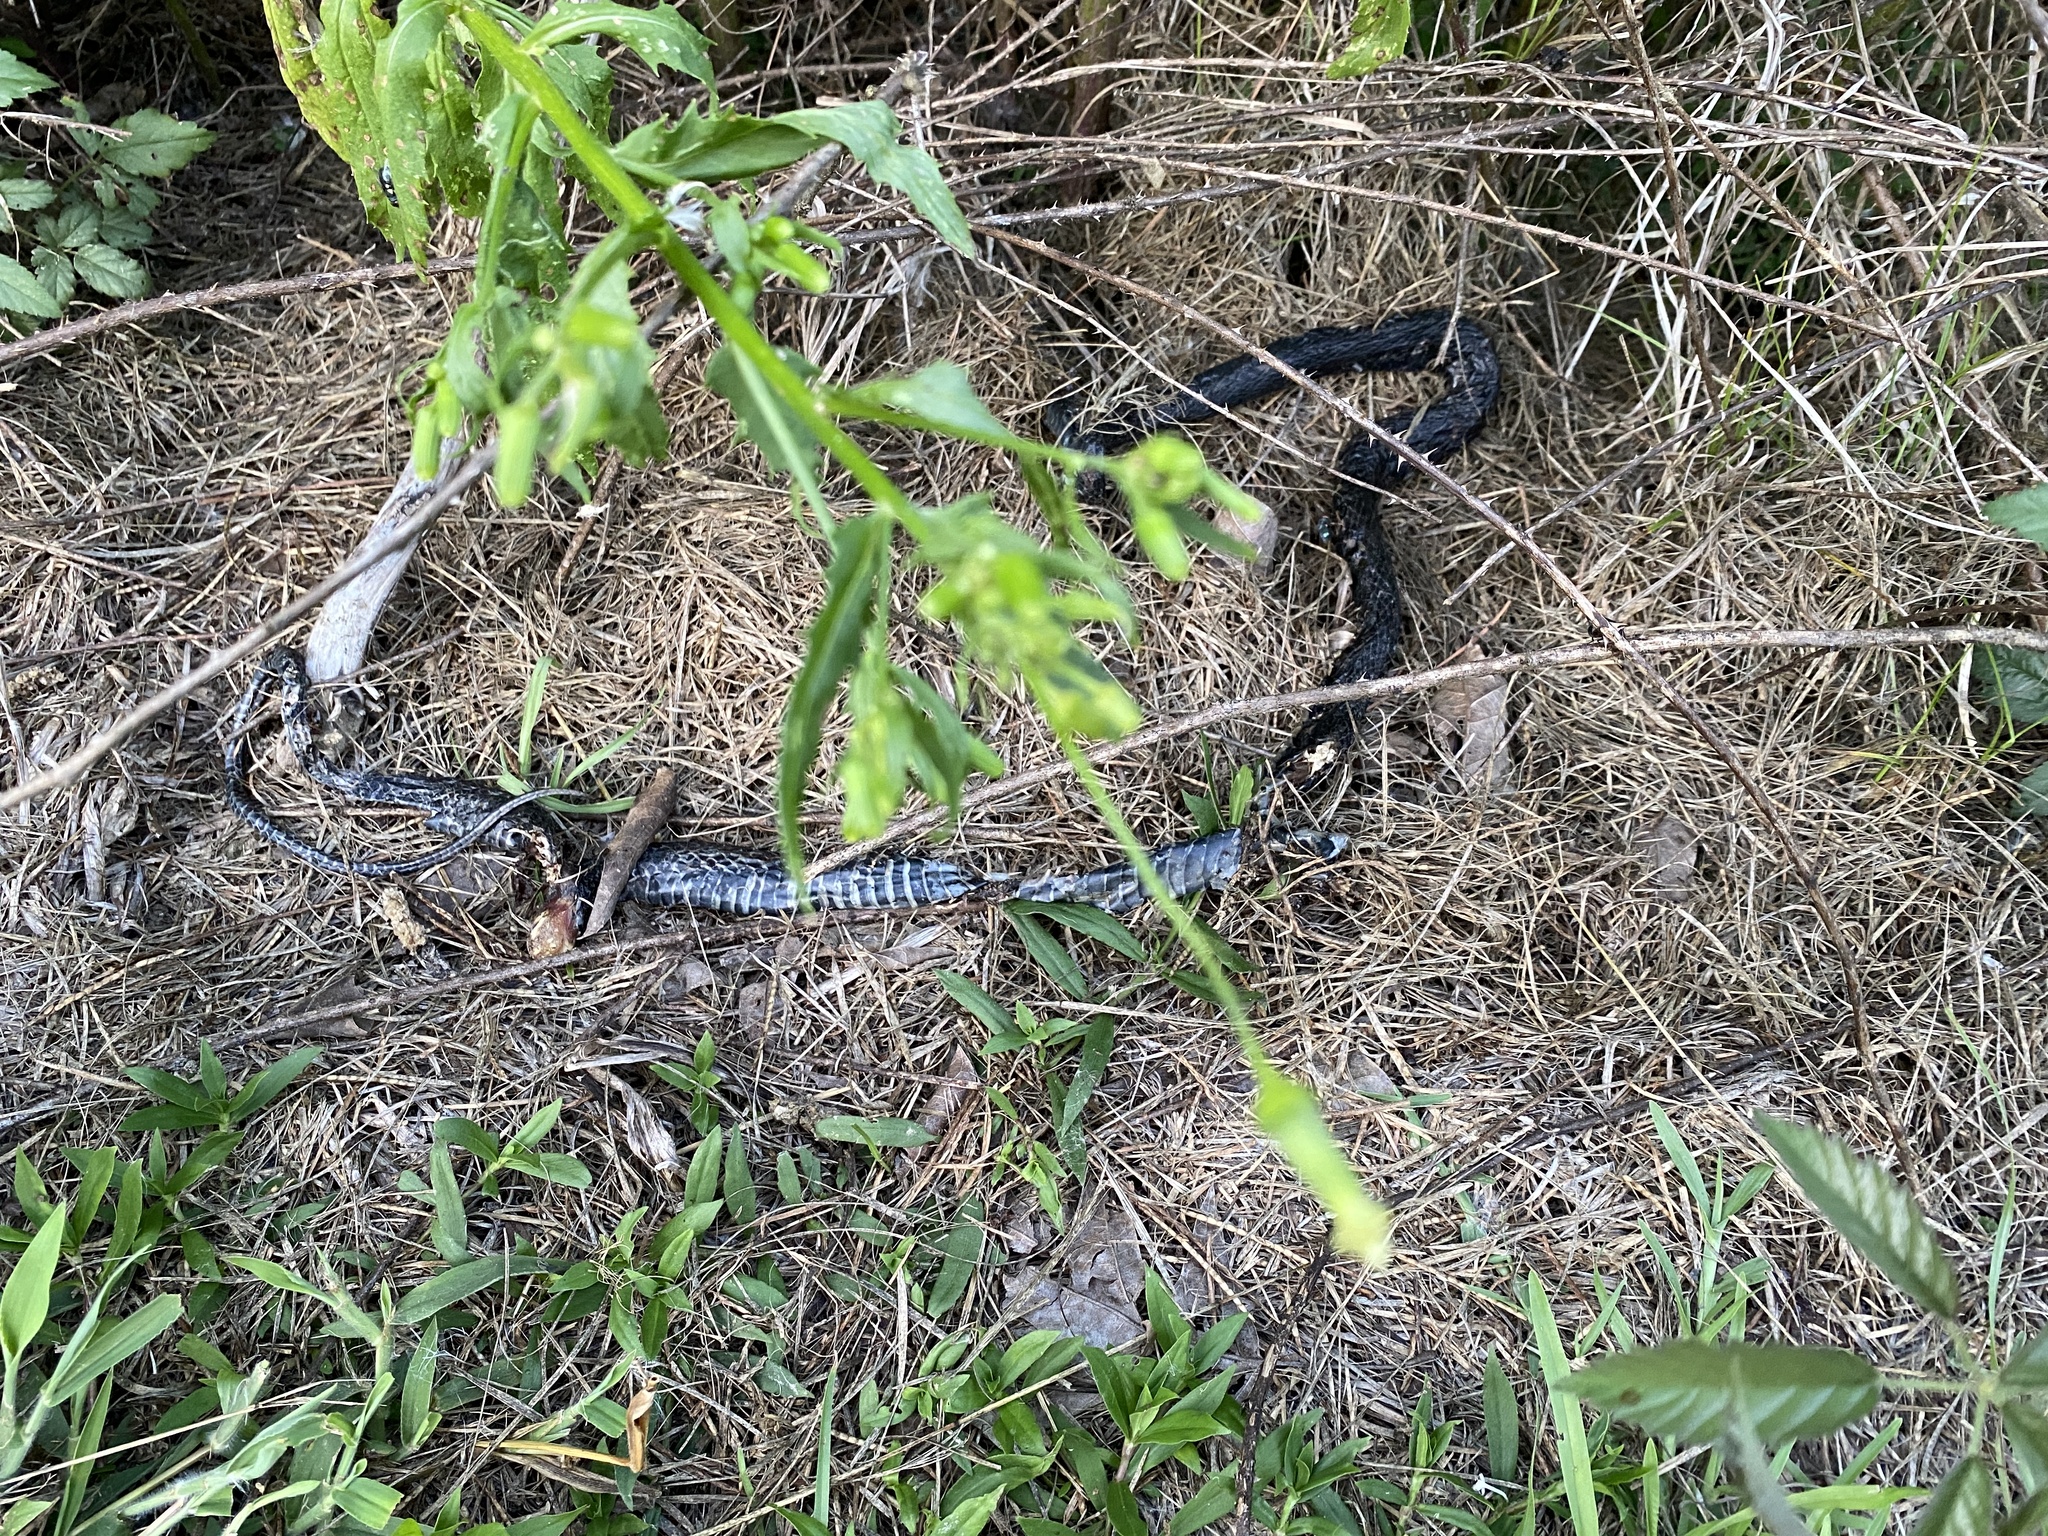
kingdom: Animalia
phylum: Chordata
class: Squamata
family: Colubridae
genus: Coluber
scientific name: Coluber constrictor
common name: Eastern racer
